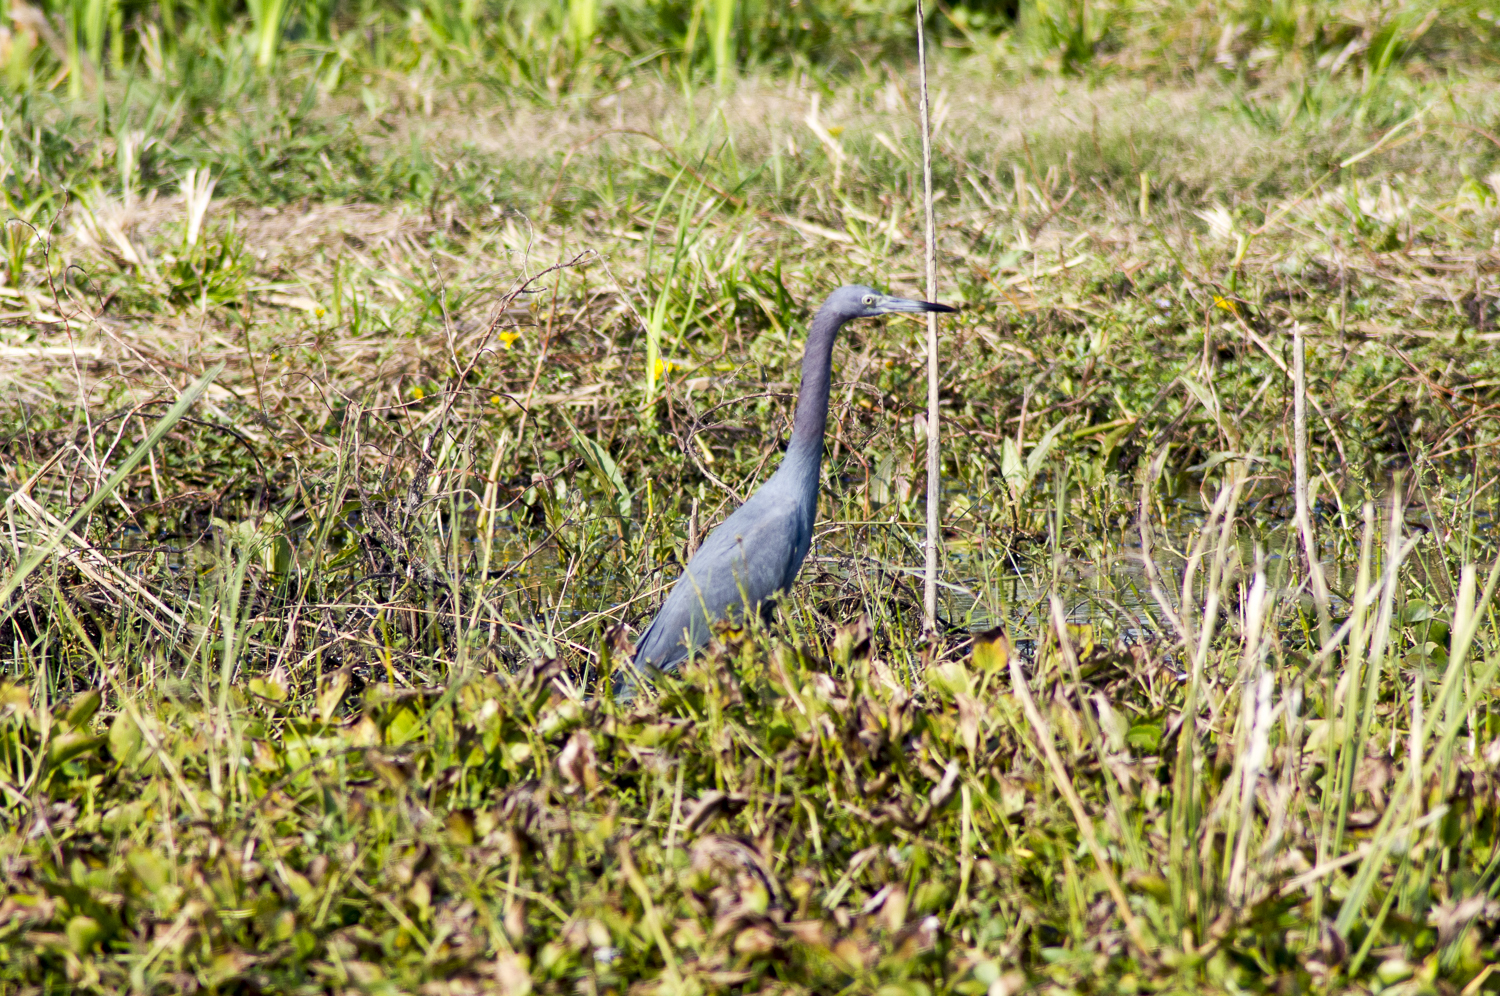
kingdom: Animalia
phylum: Chordata
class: Aves
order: Pelecaniformes
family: Ardeidae
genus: Egretta
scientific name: Egretta caerulea
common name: Little blue heron
